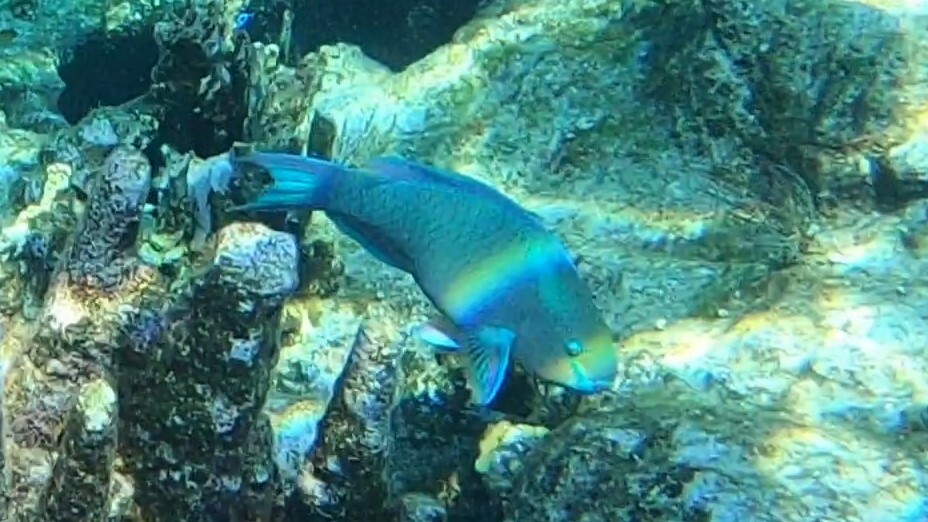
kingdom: Animalia
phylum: Chordata
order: Perciformes
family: Scaridae
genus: Scarus
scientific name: Scarus vetula
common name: Queen parrotfish
